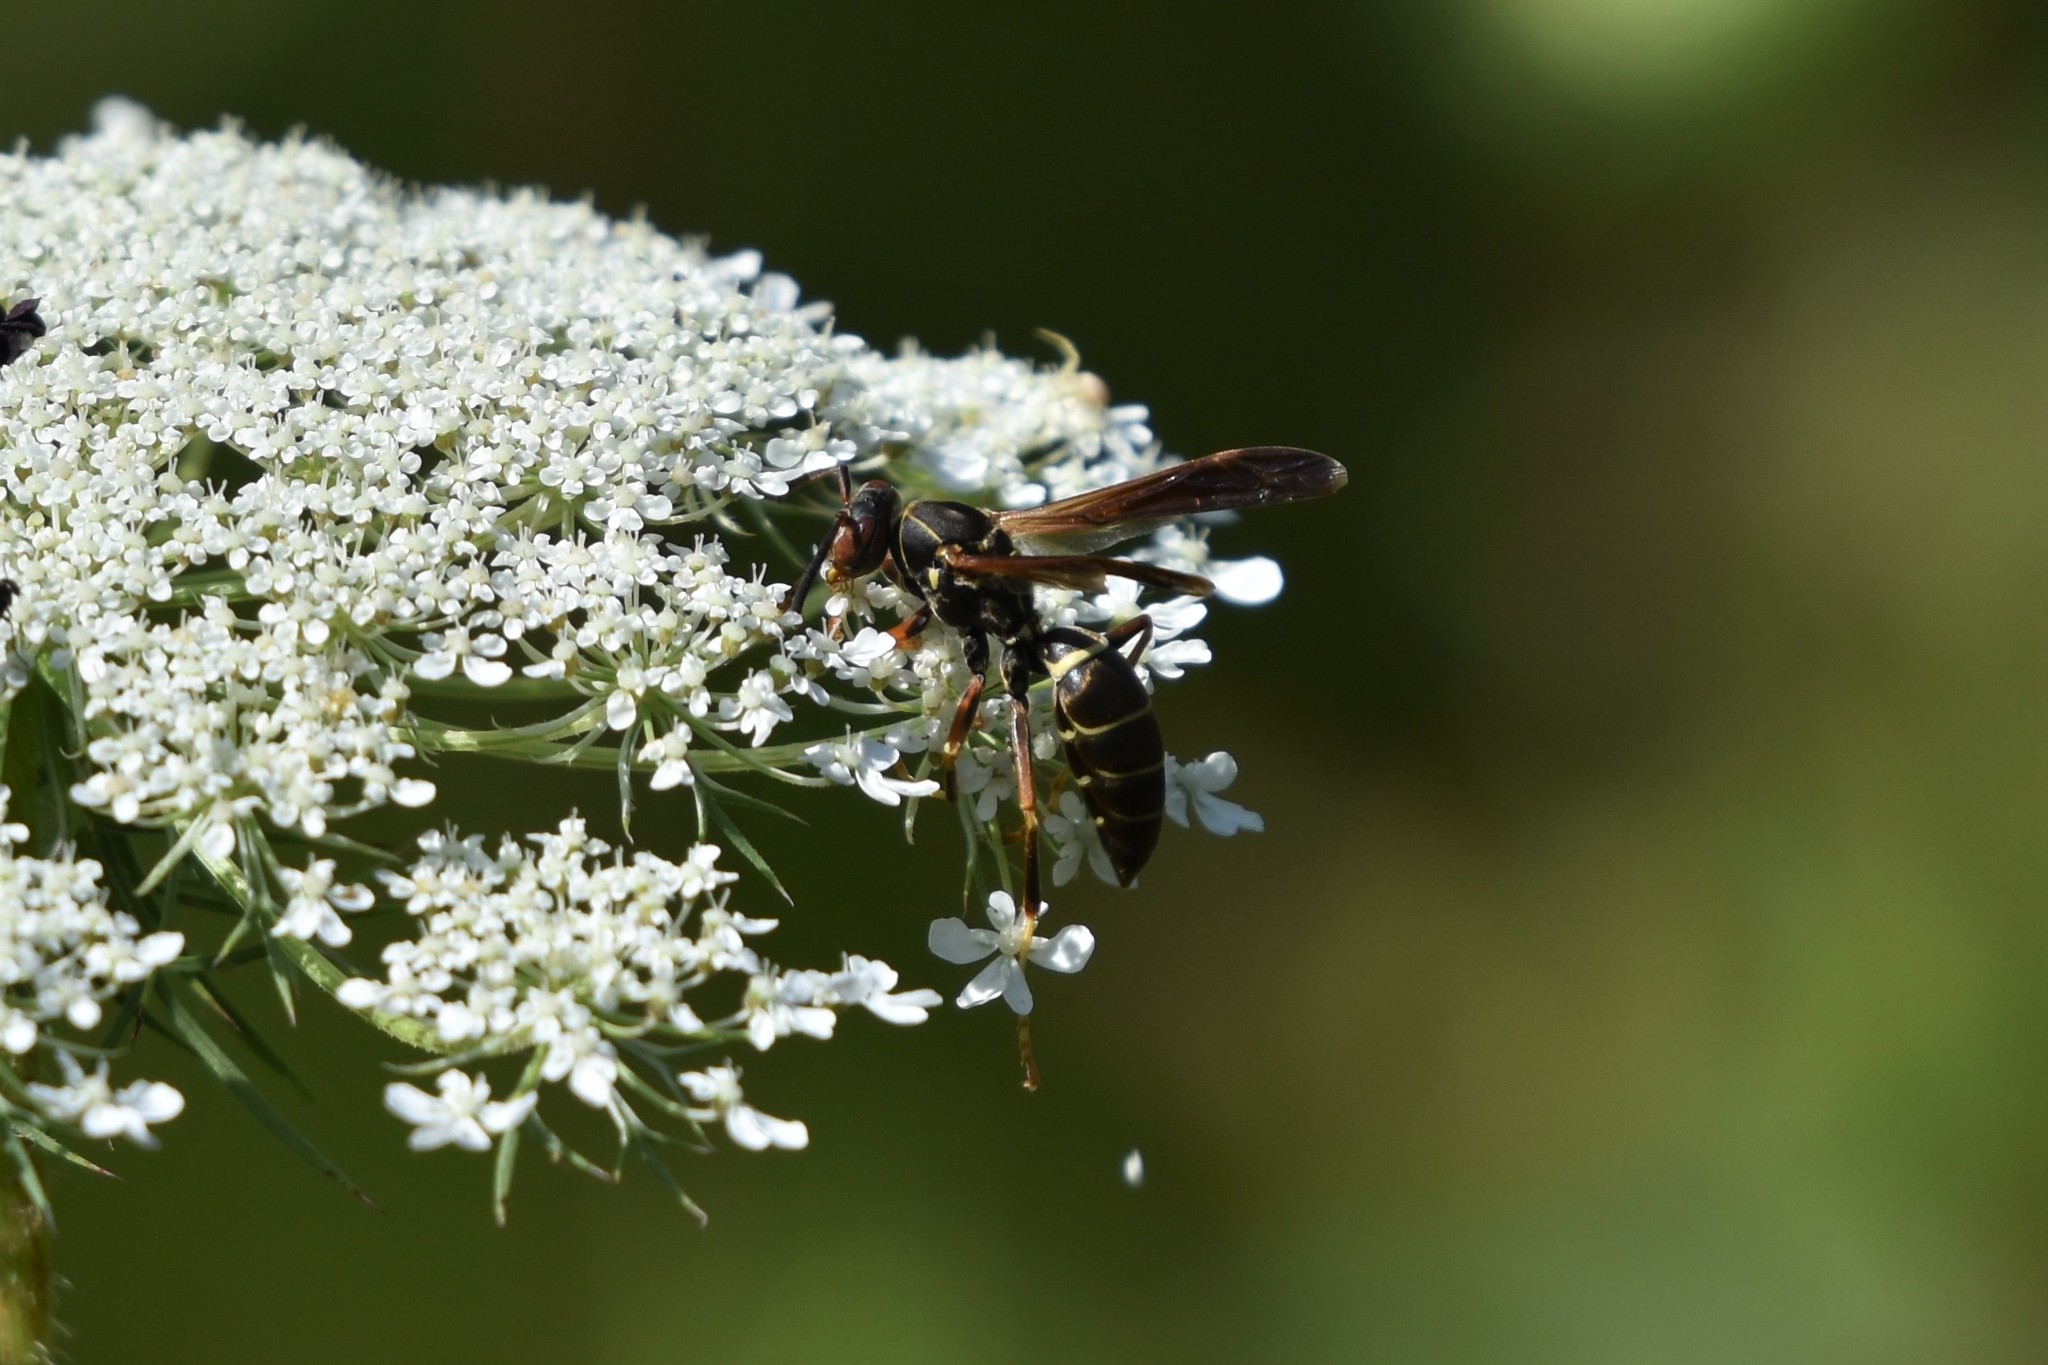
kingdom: Animalia
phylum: Arthropoda
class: Insecta
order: Hymenoptera
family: Eumenidae
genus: Polistes
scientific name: Polistes fuscatus
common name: Dark paper wasp
